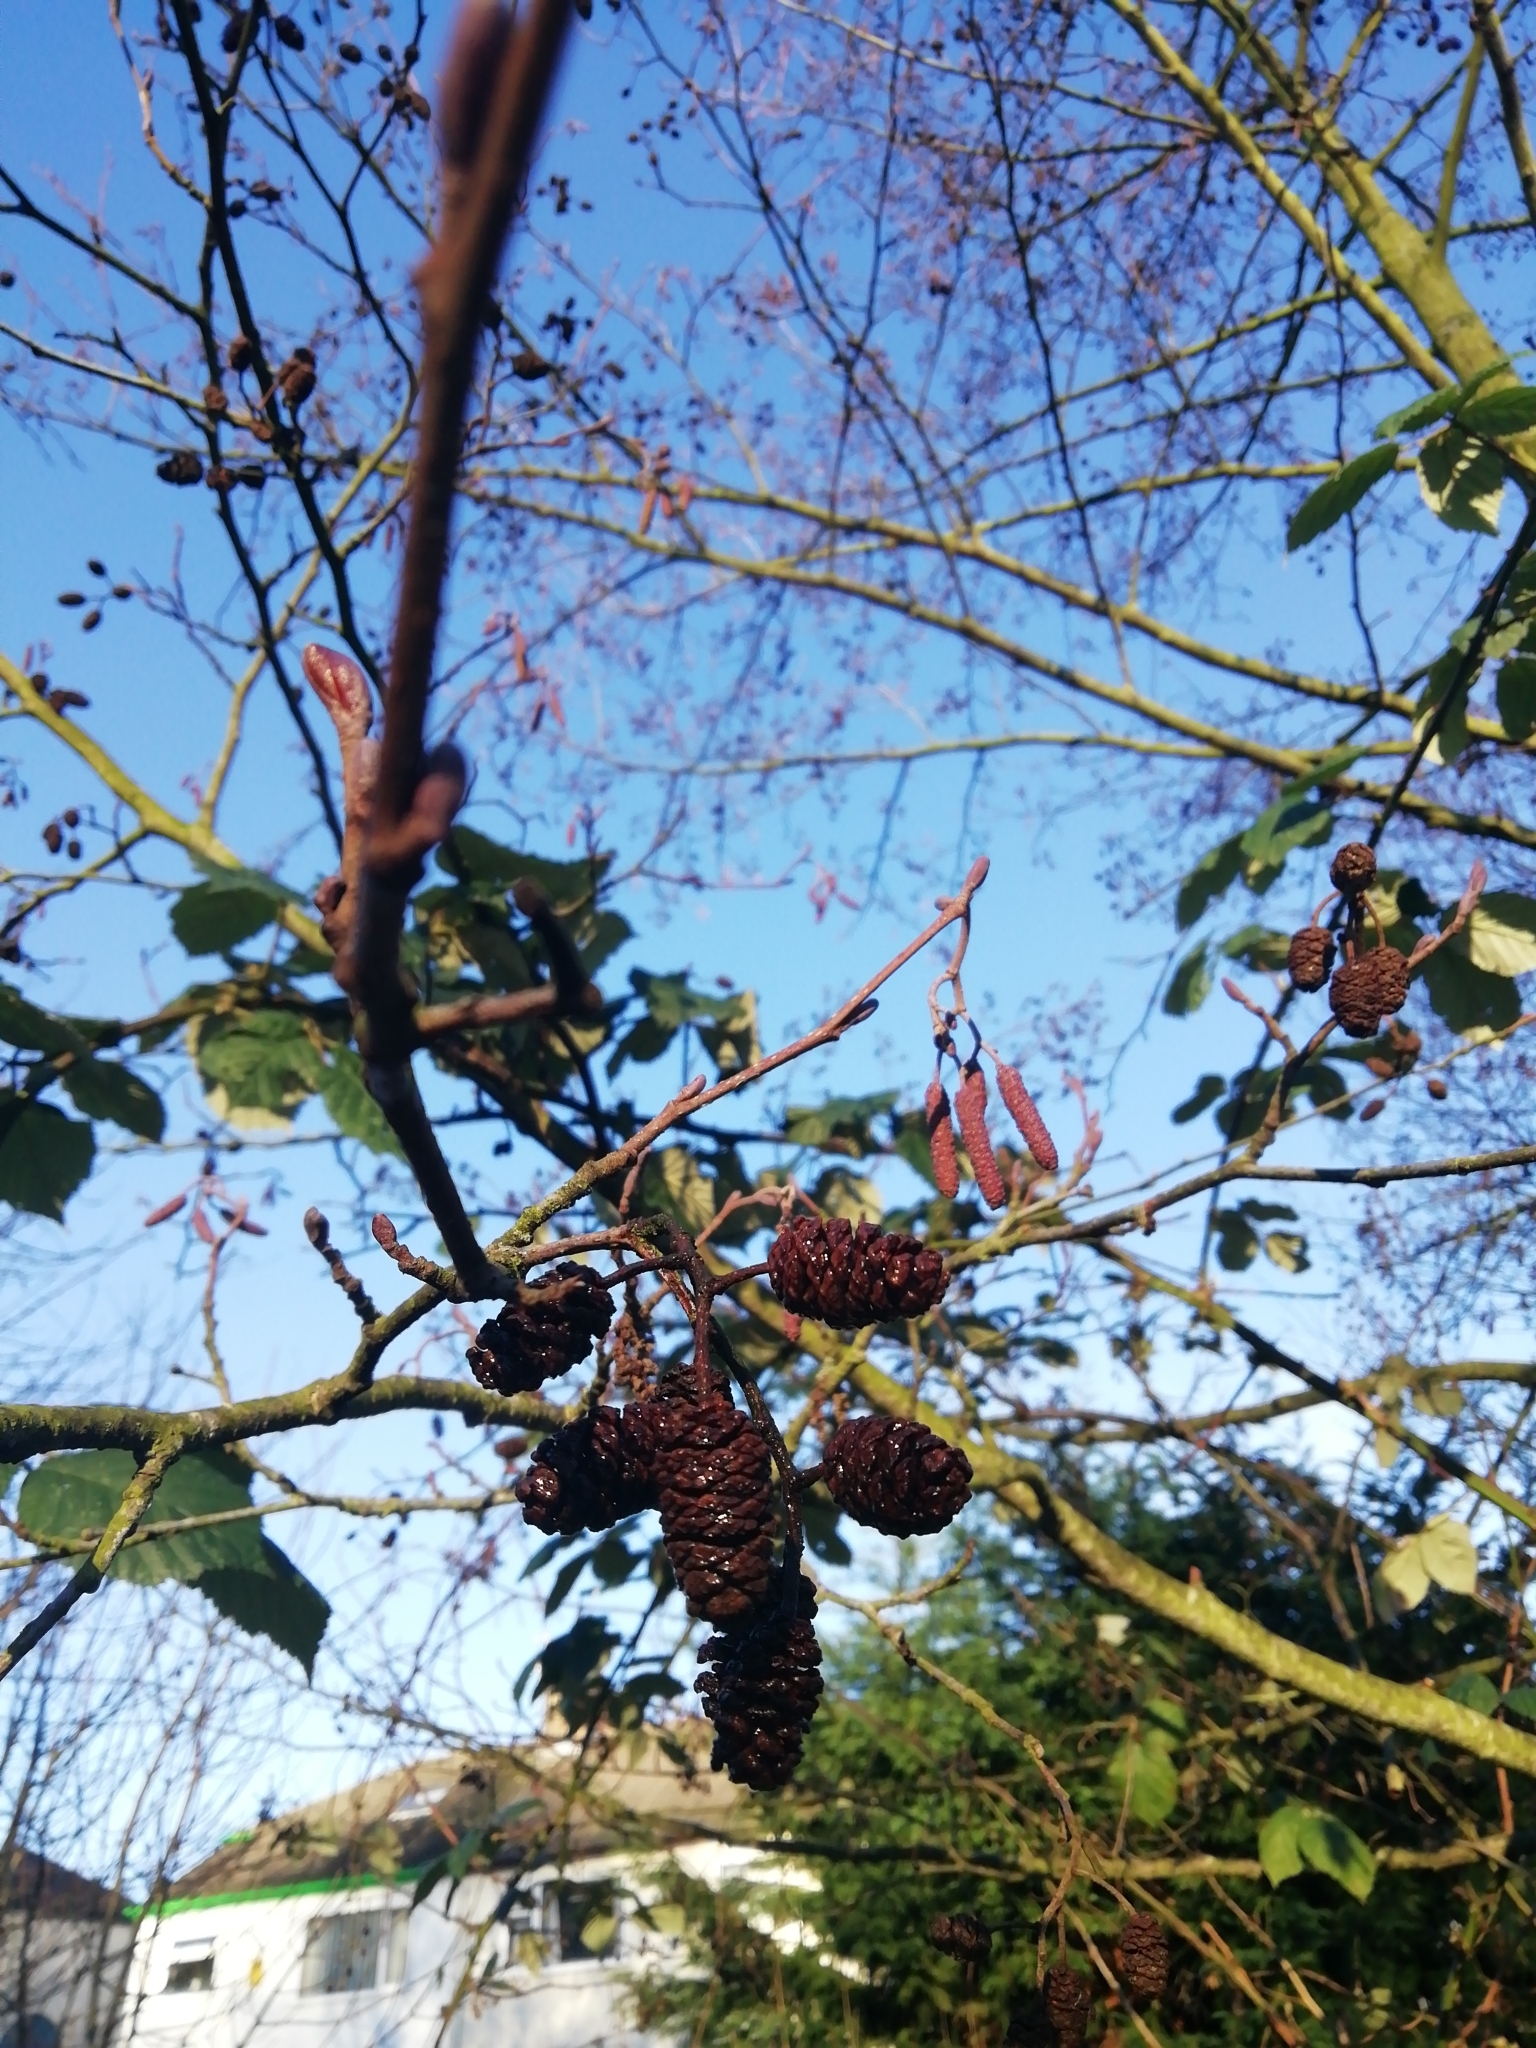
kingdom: Plantae
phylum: Tracheophyta
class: Magnoliopsida
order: Fagales
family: Betulaceae
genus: Alnus
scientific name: Alnus glutinosa
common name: Black alder
